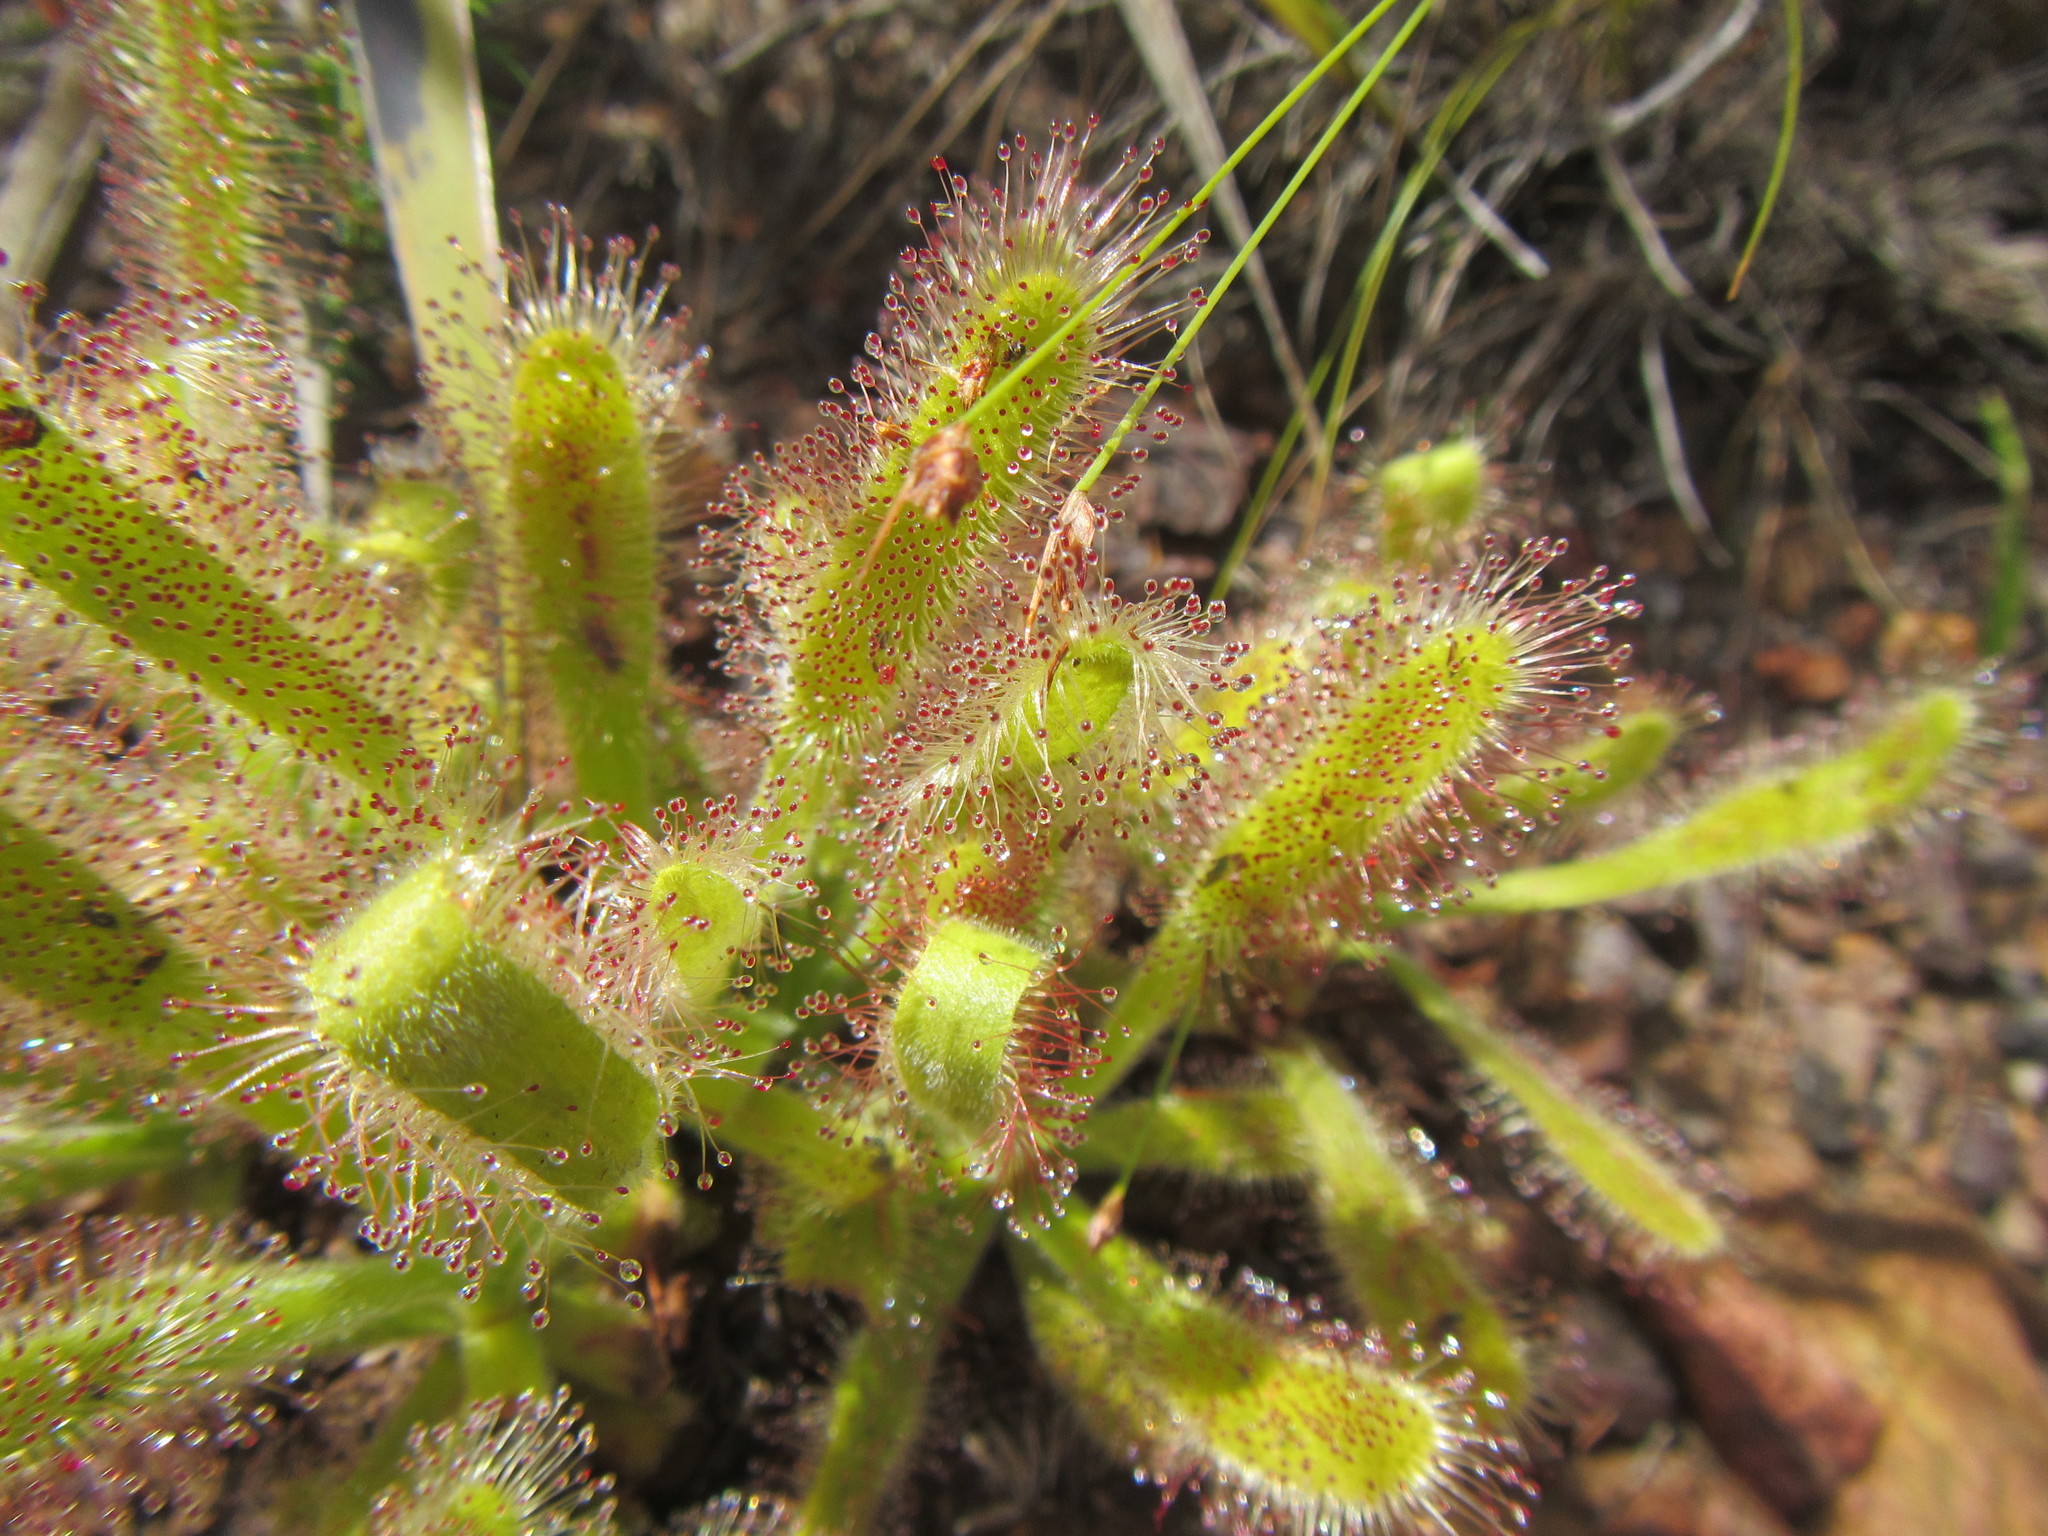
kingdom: Plantae
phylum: Tracheophyta
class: Magnoliopsida
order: Caryophyllales
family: Droseraceae
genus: Drosera
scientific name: Drosera hilaris
